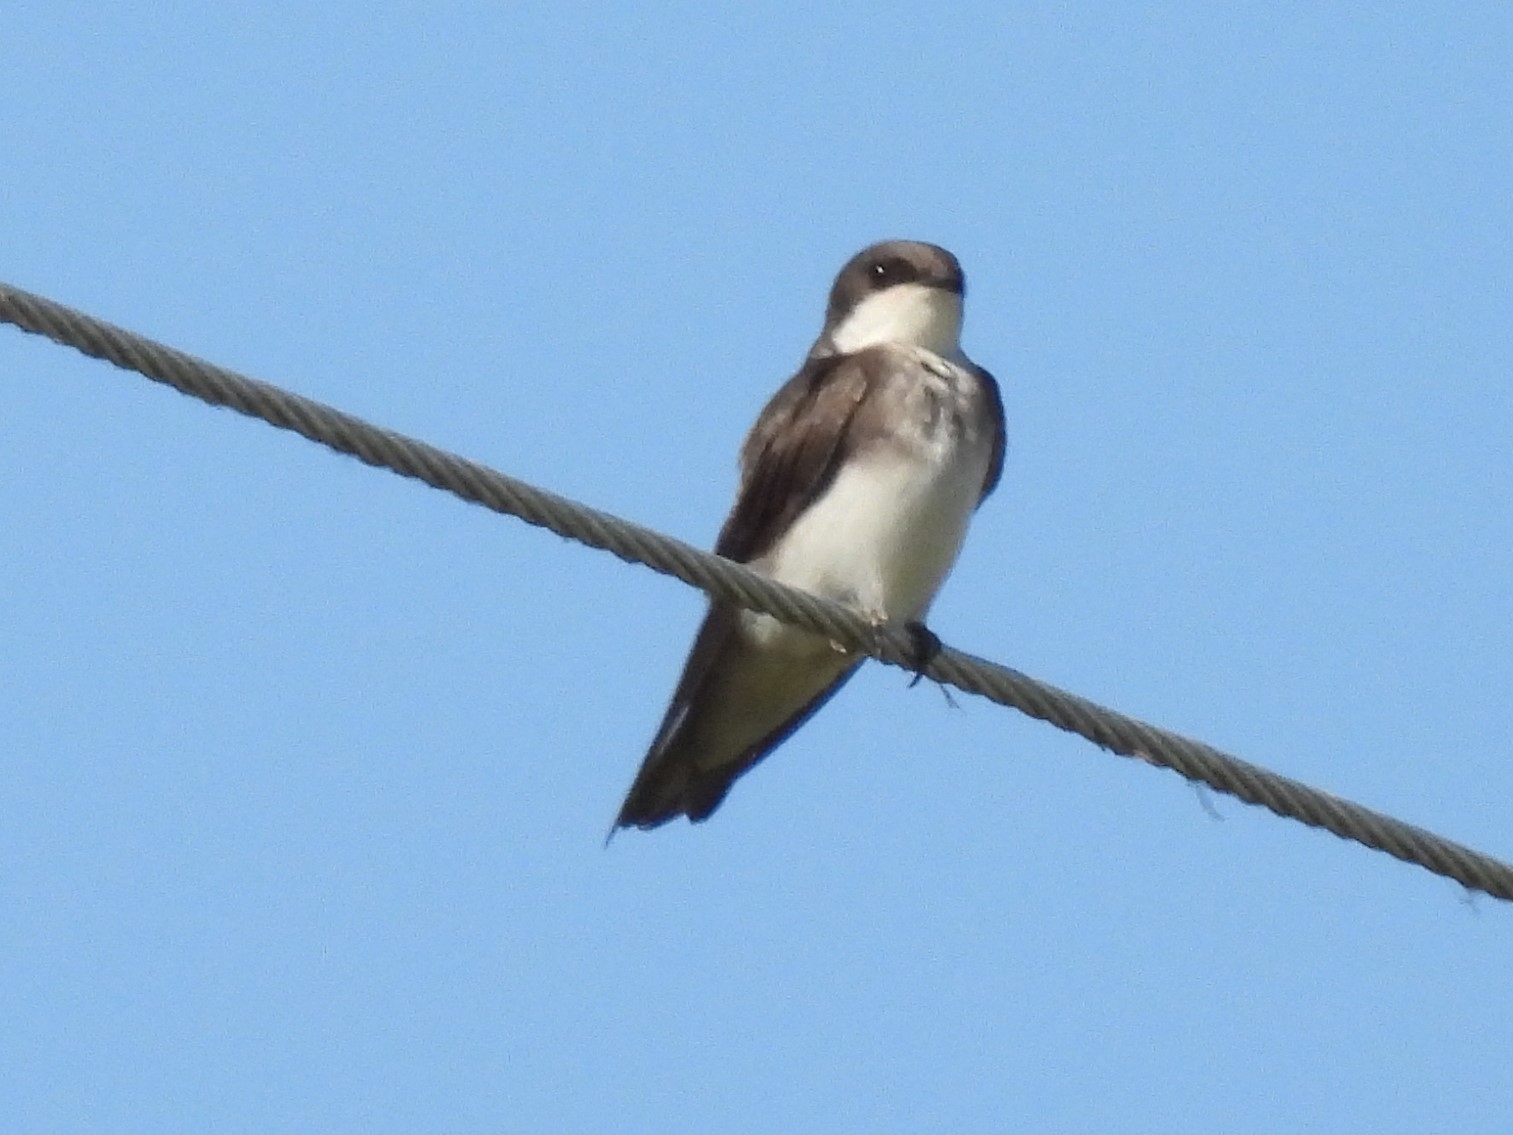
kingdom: Animalia
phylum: Chordata
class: Aves
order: Passeriformes
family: Hirundinidae
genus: Tachycineta
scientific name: Tachycineta bicolor
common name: Tree swallow
